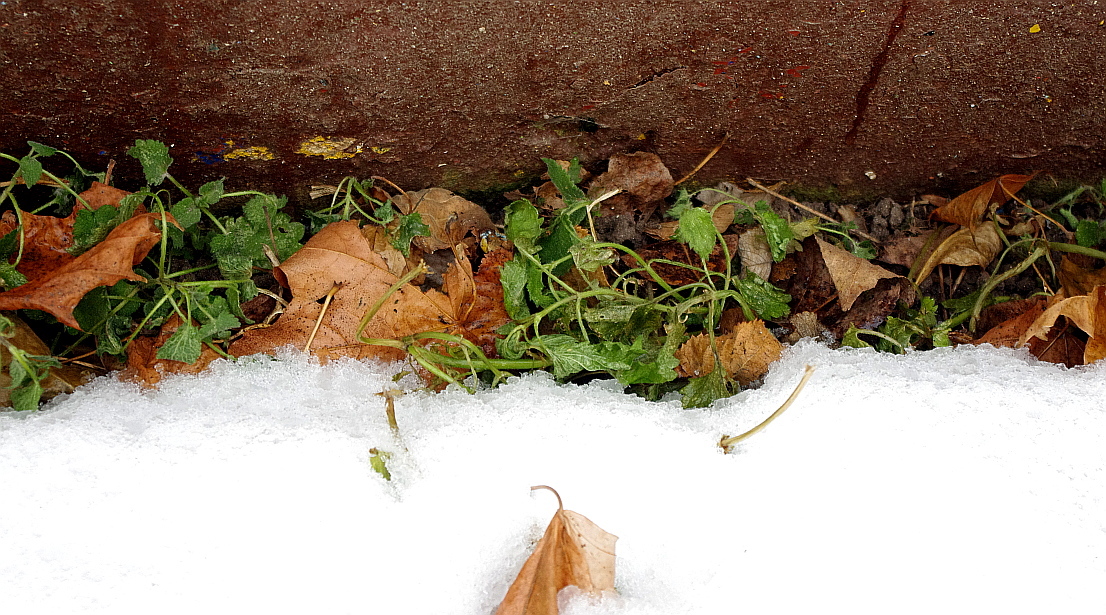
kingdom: Plantae
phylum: Tracheophyta
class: Magnoliopsida
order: Lamiales
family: Lamiaceae
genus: Lamium
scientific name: Lamium album
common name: White dead-nettle
